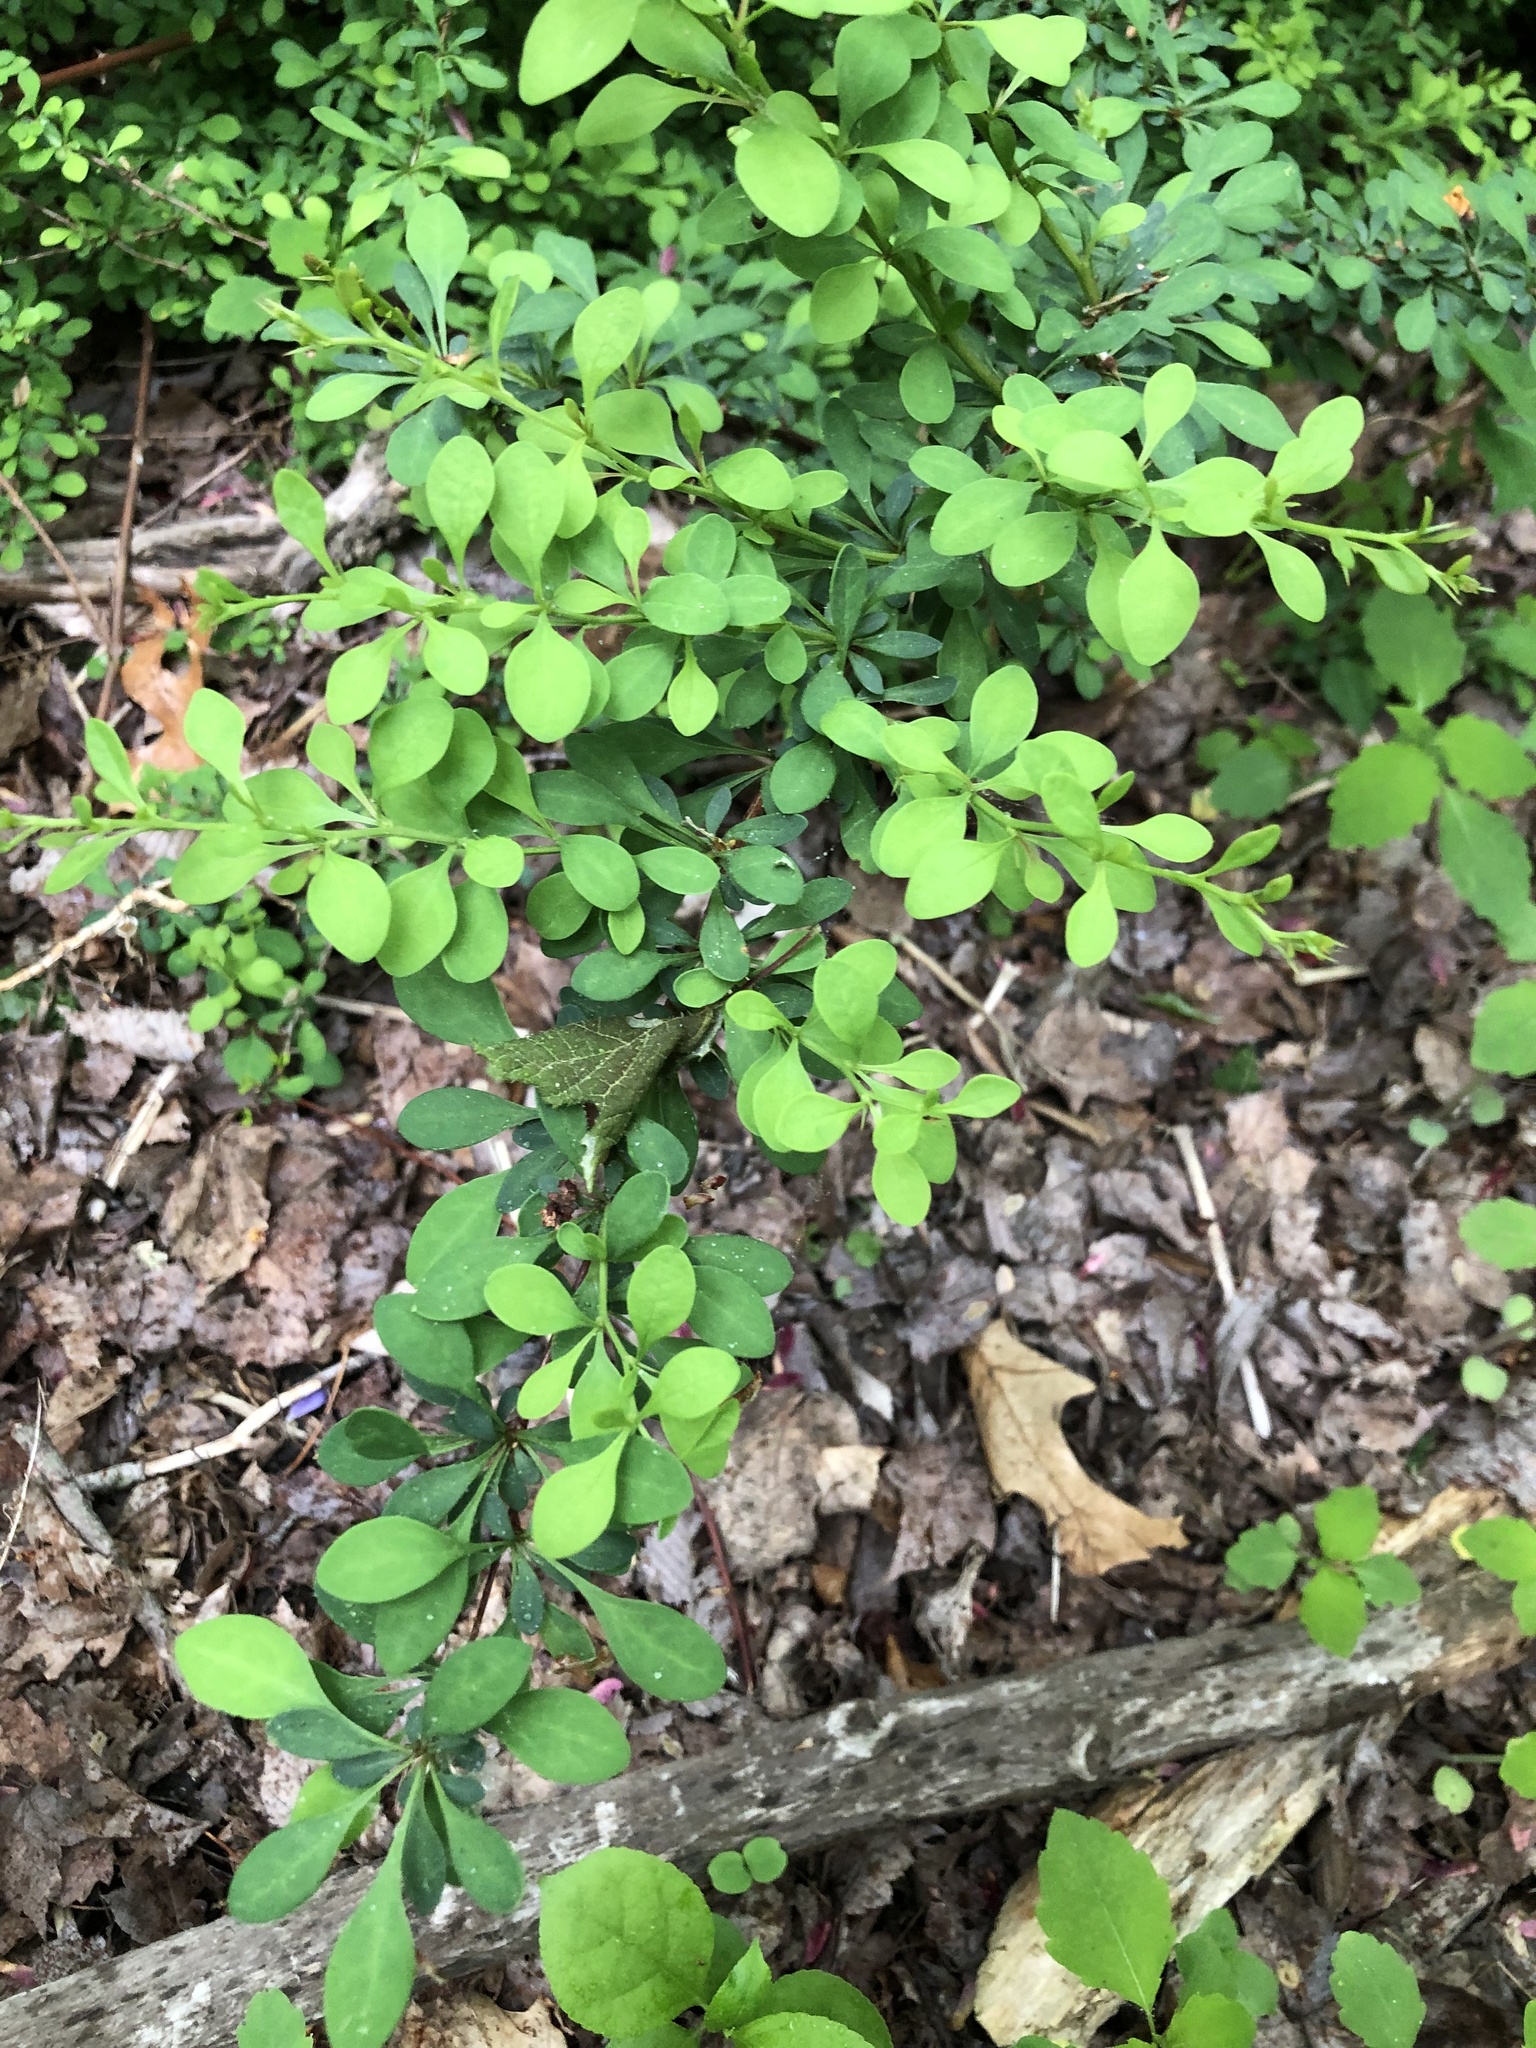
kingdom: Plantae
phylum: Tracheophyta
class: Magnoliopsida
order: Ranunculales
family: Berberidaceae
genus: Berberis
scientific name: Berberis thunbergii
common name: Japanese barberry
